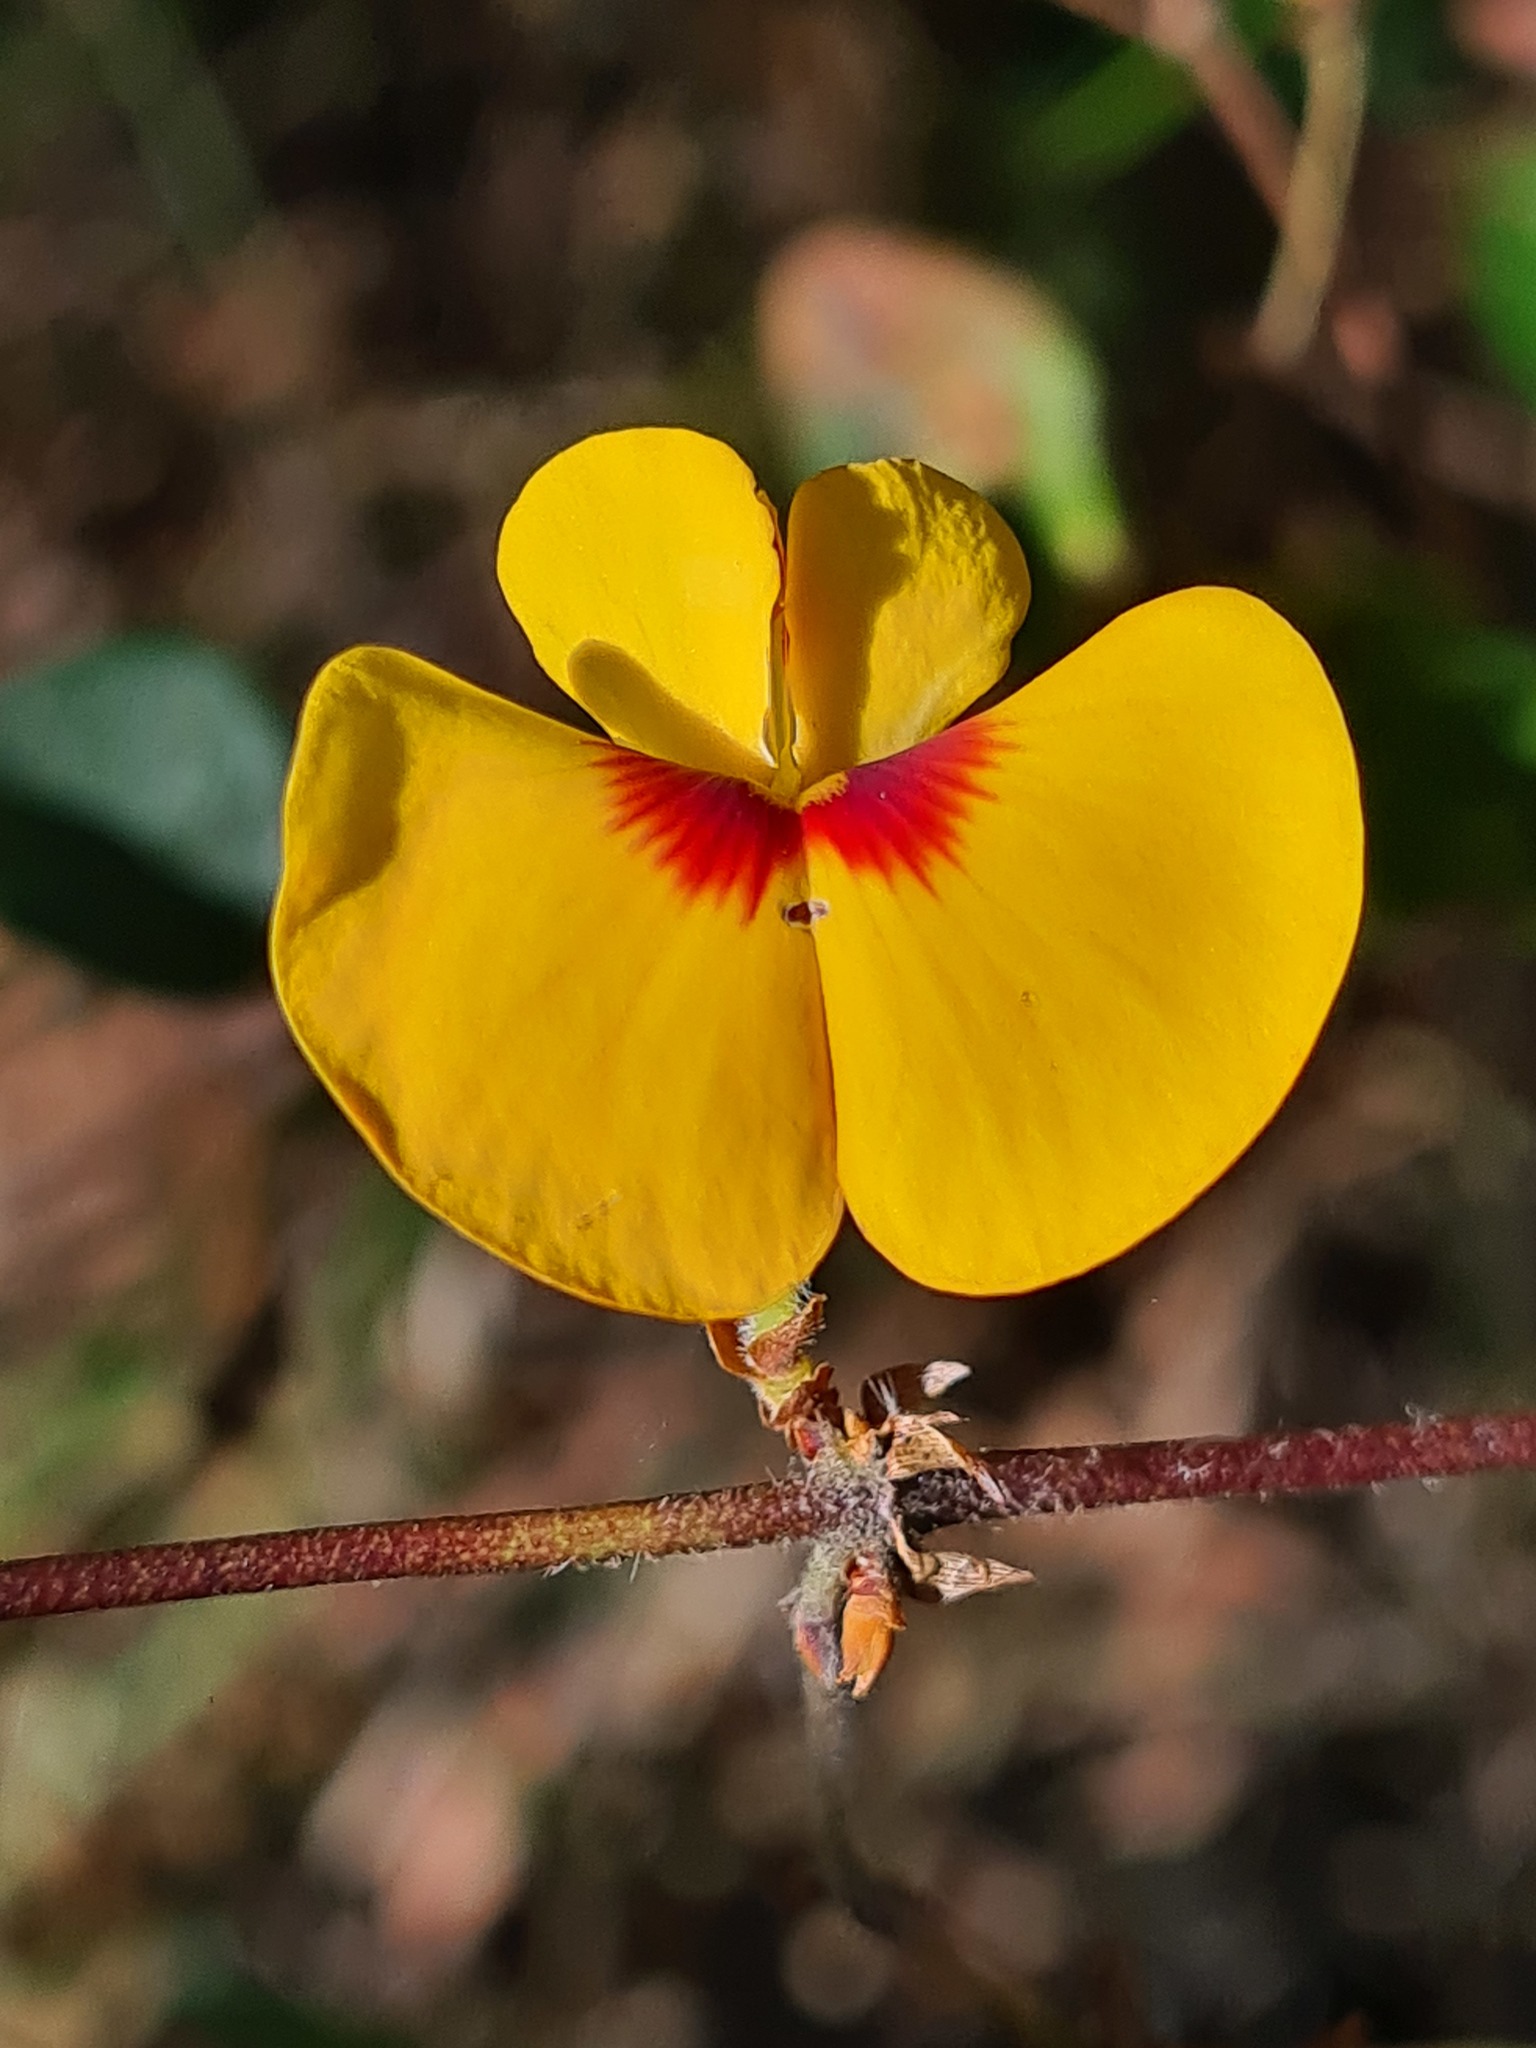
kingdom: Plantae
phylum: Tracheophyta
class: Magnoliopsida
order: Fabales
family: Fabaceae
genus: Platylobium
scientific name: Platylobium formosum
